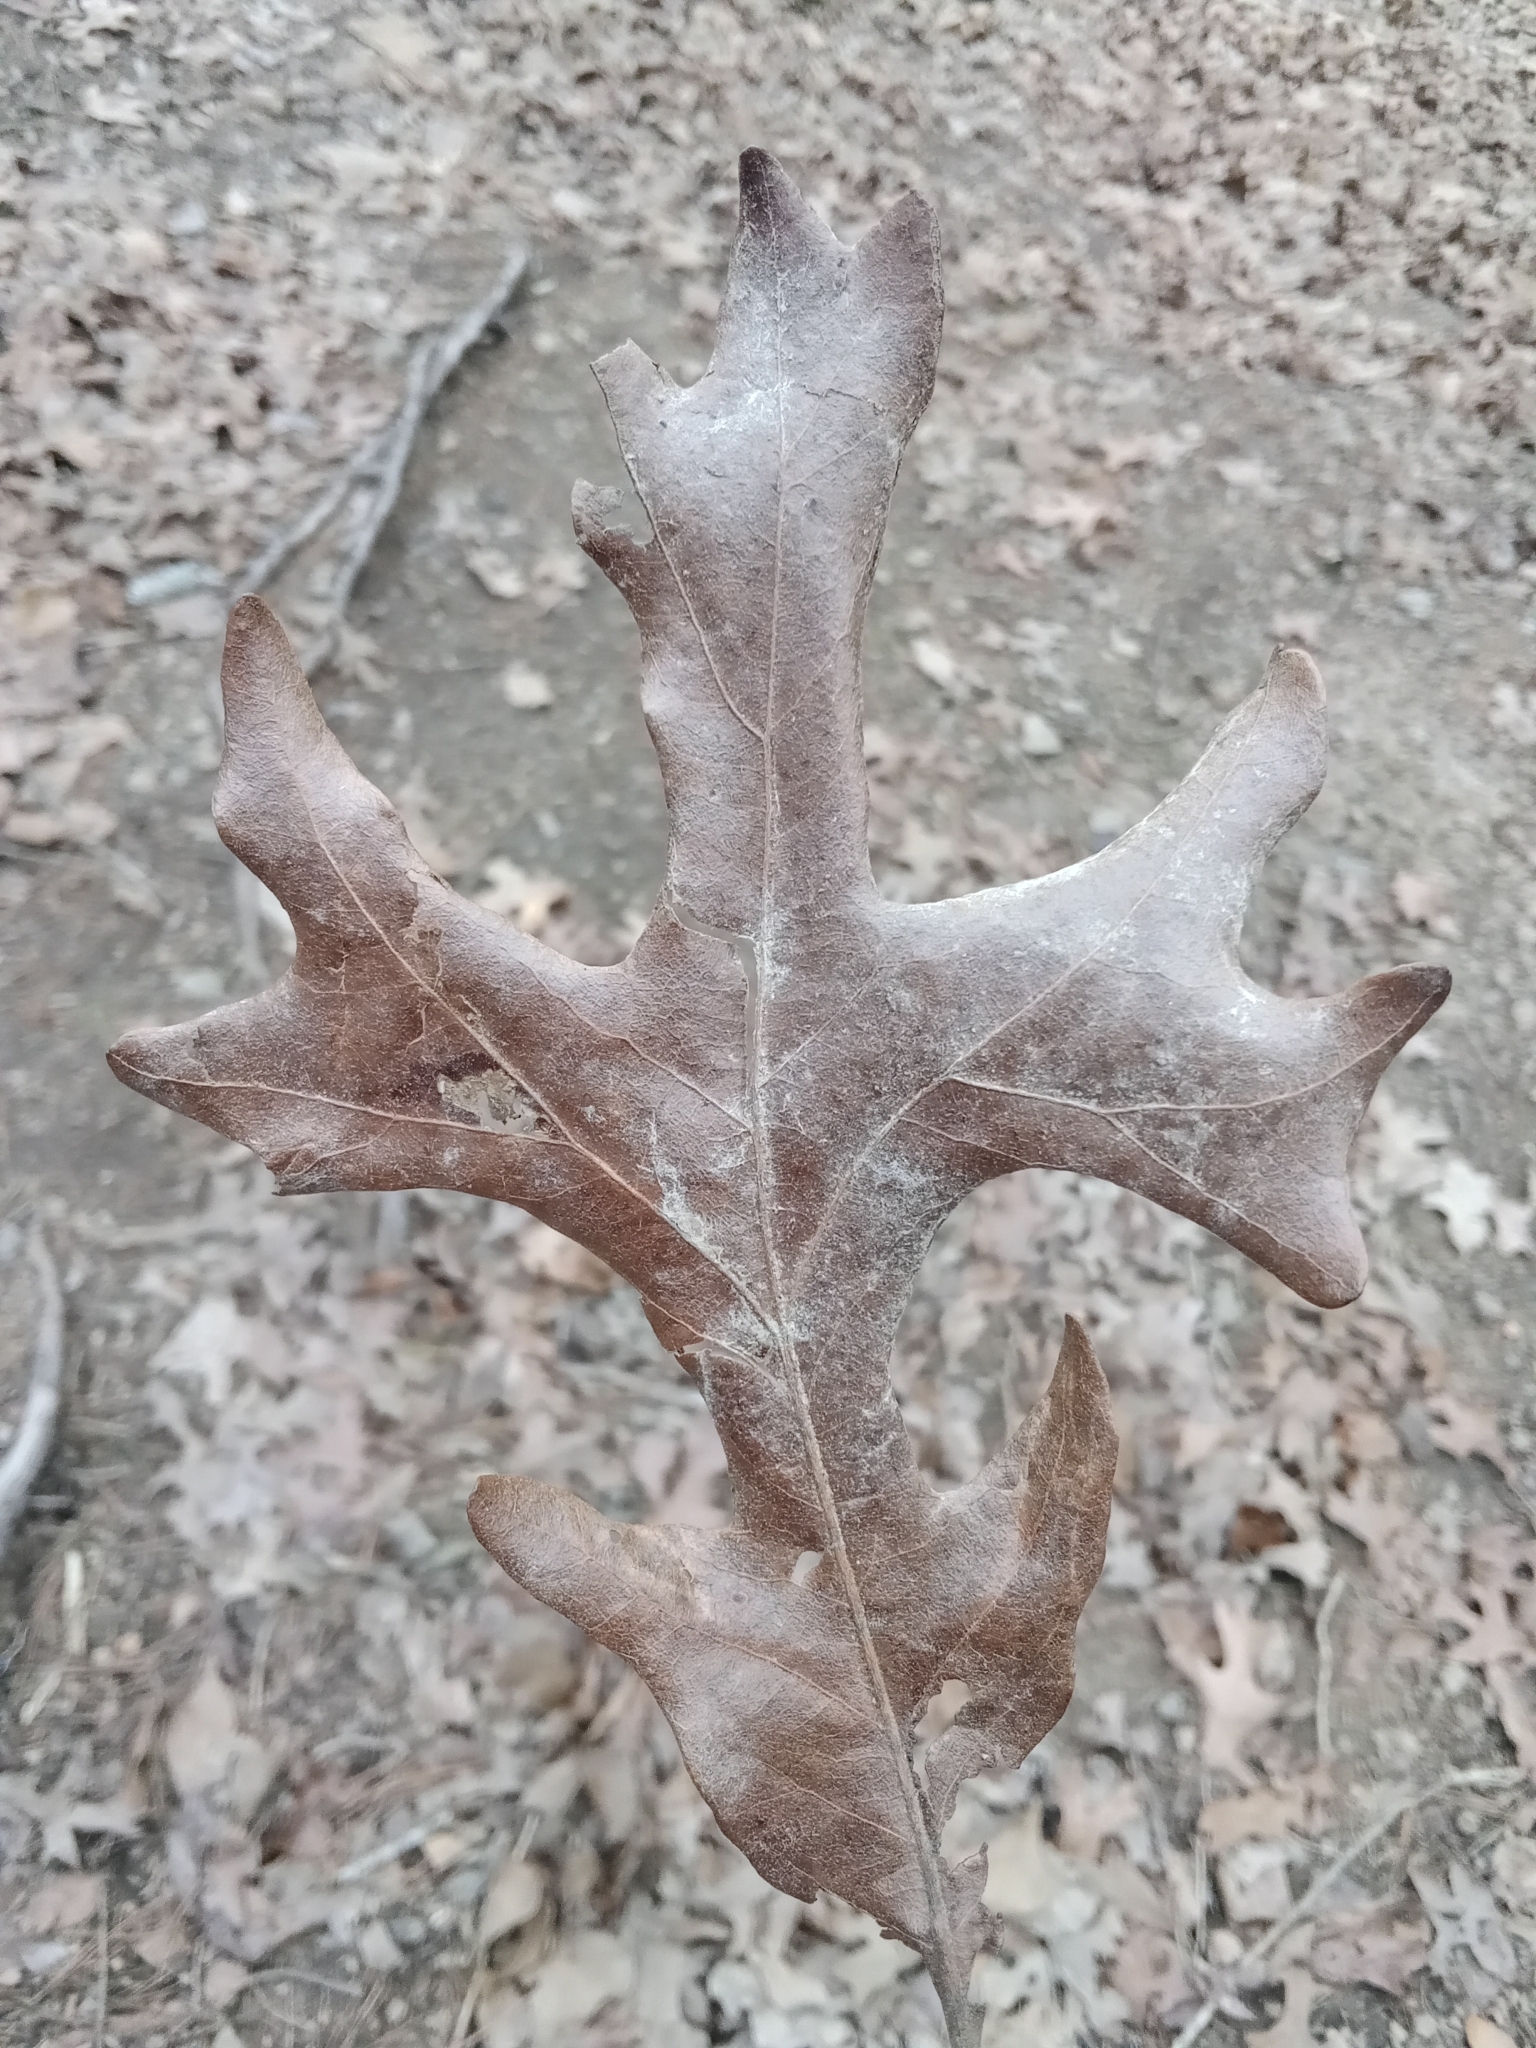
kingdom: Plantae
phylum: Tracheophyta
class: Magnoliopsida
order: Fagales
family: Fagaceae
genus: Quercus
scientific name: Quercus stellata
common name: Post oak
